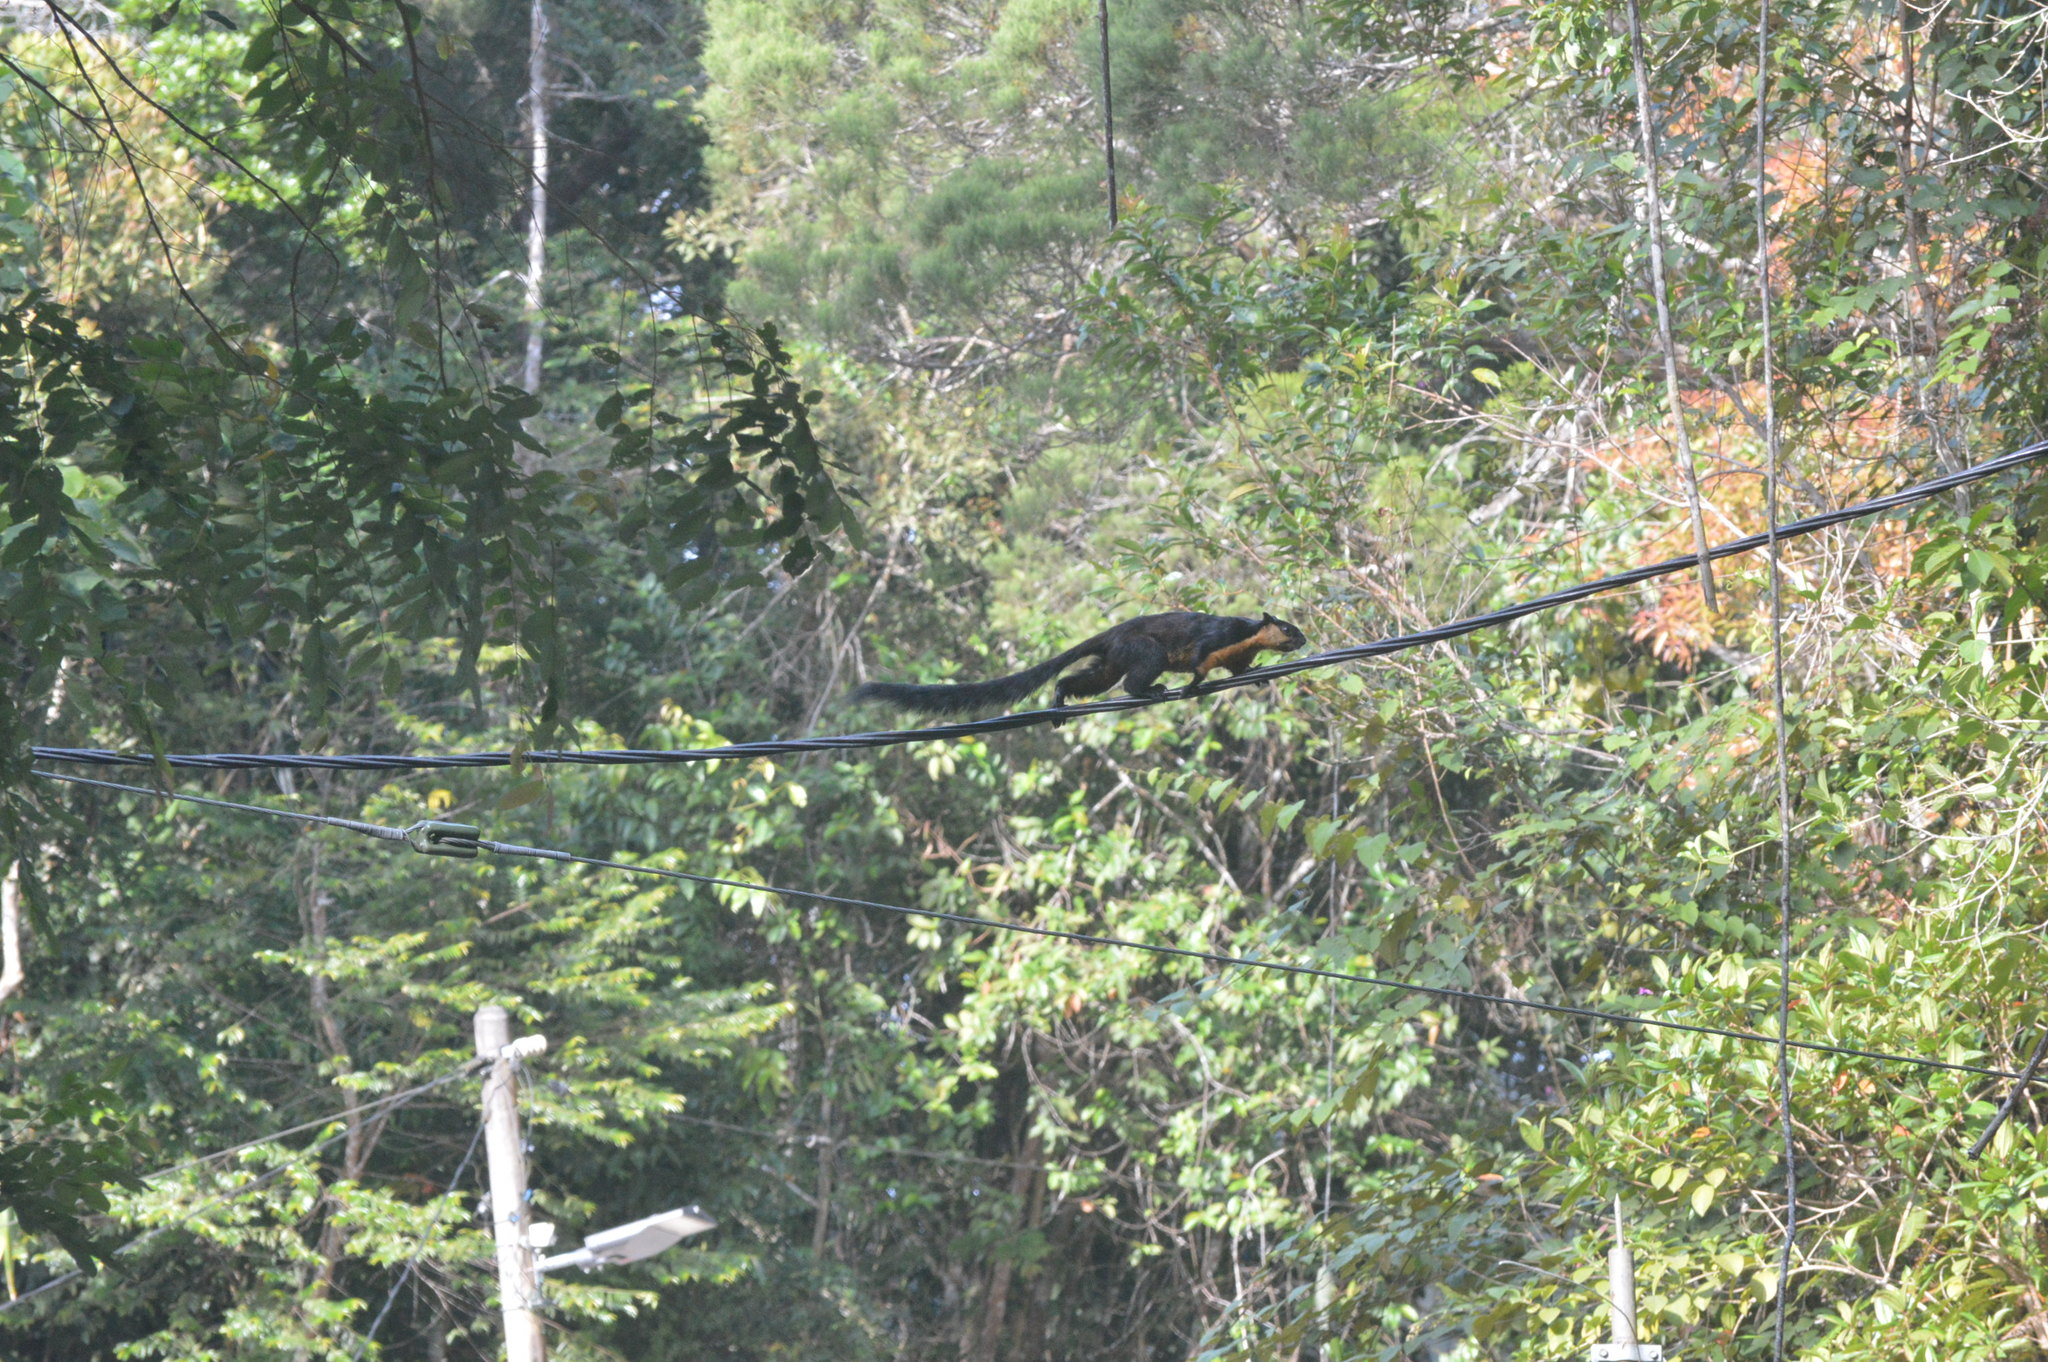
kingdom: Animalia
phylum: Chordata
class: Mammalia
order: Rodentia
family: Sciuridae
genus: Ratufa
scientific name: Ratufa bicolor
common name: Black giant squirrel
